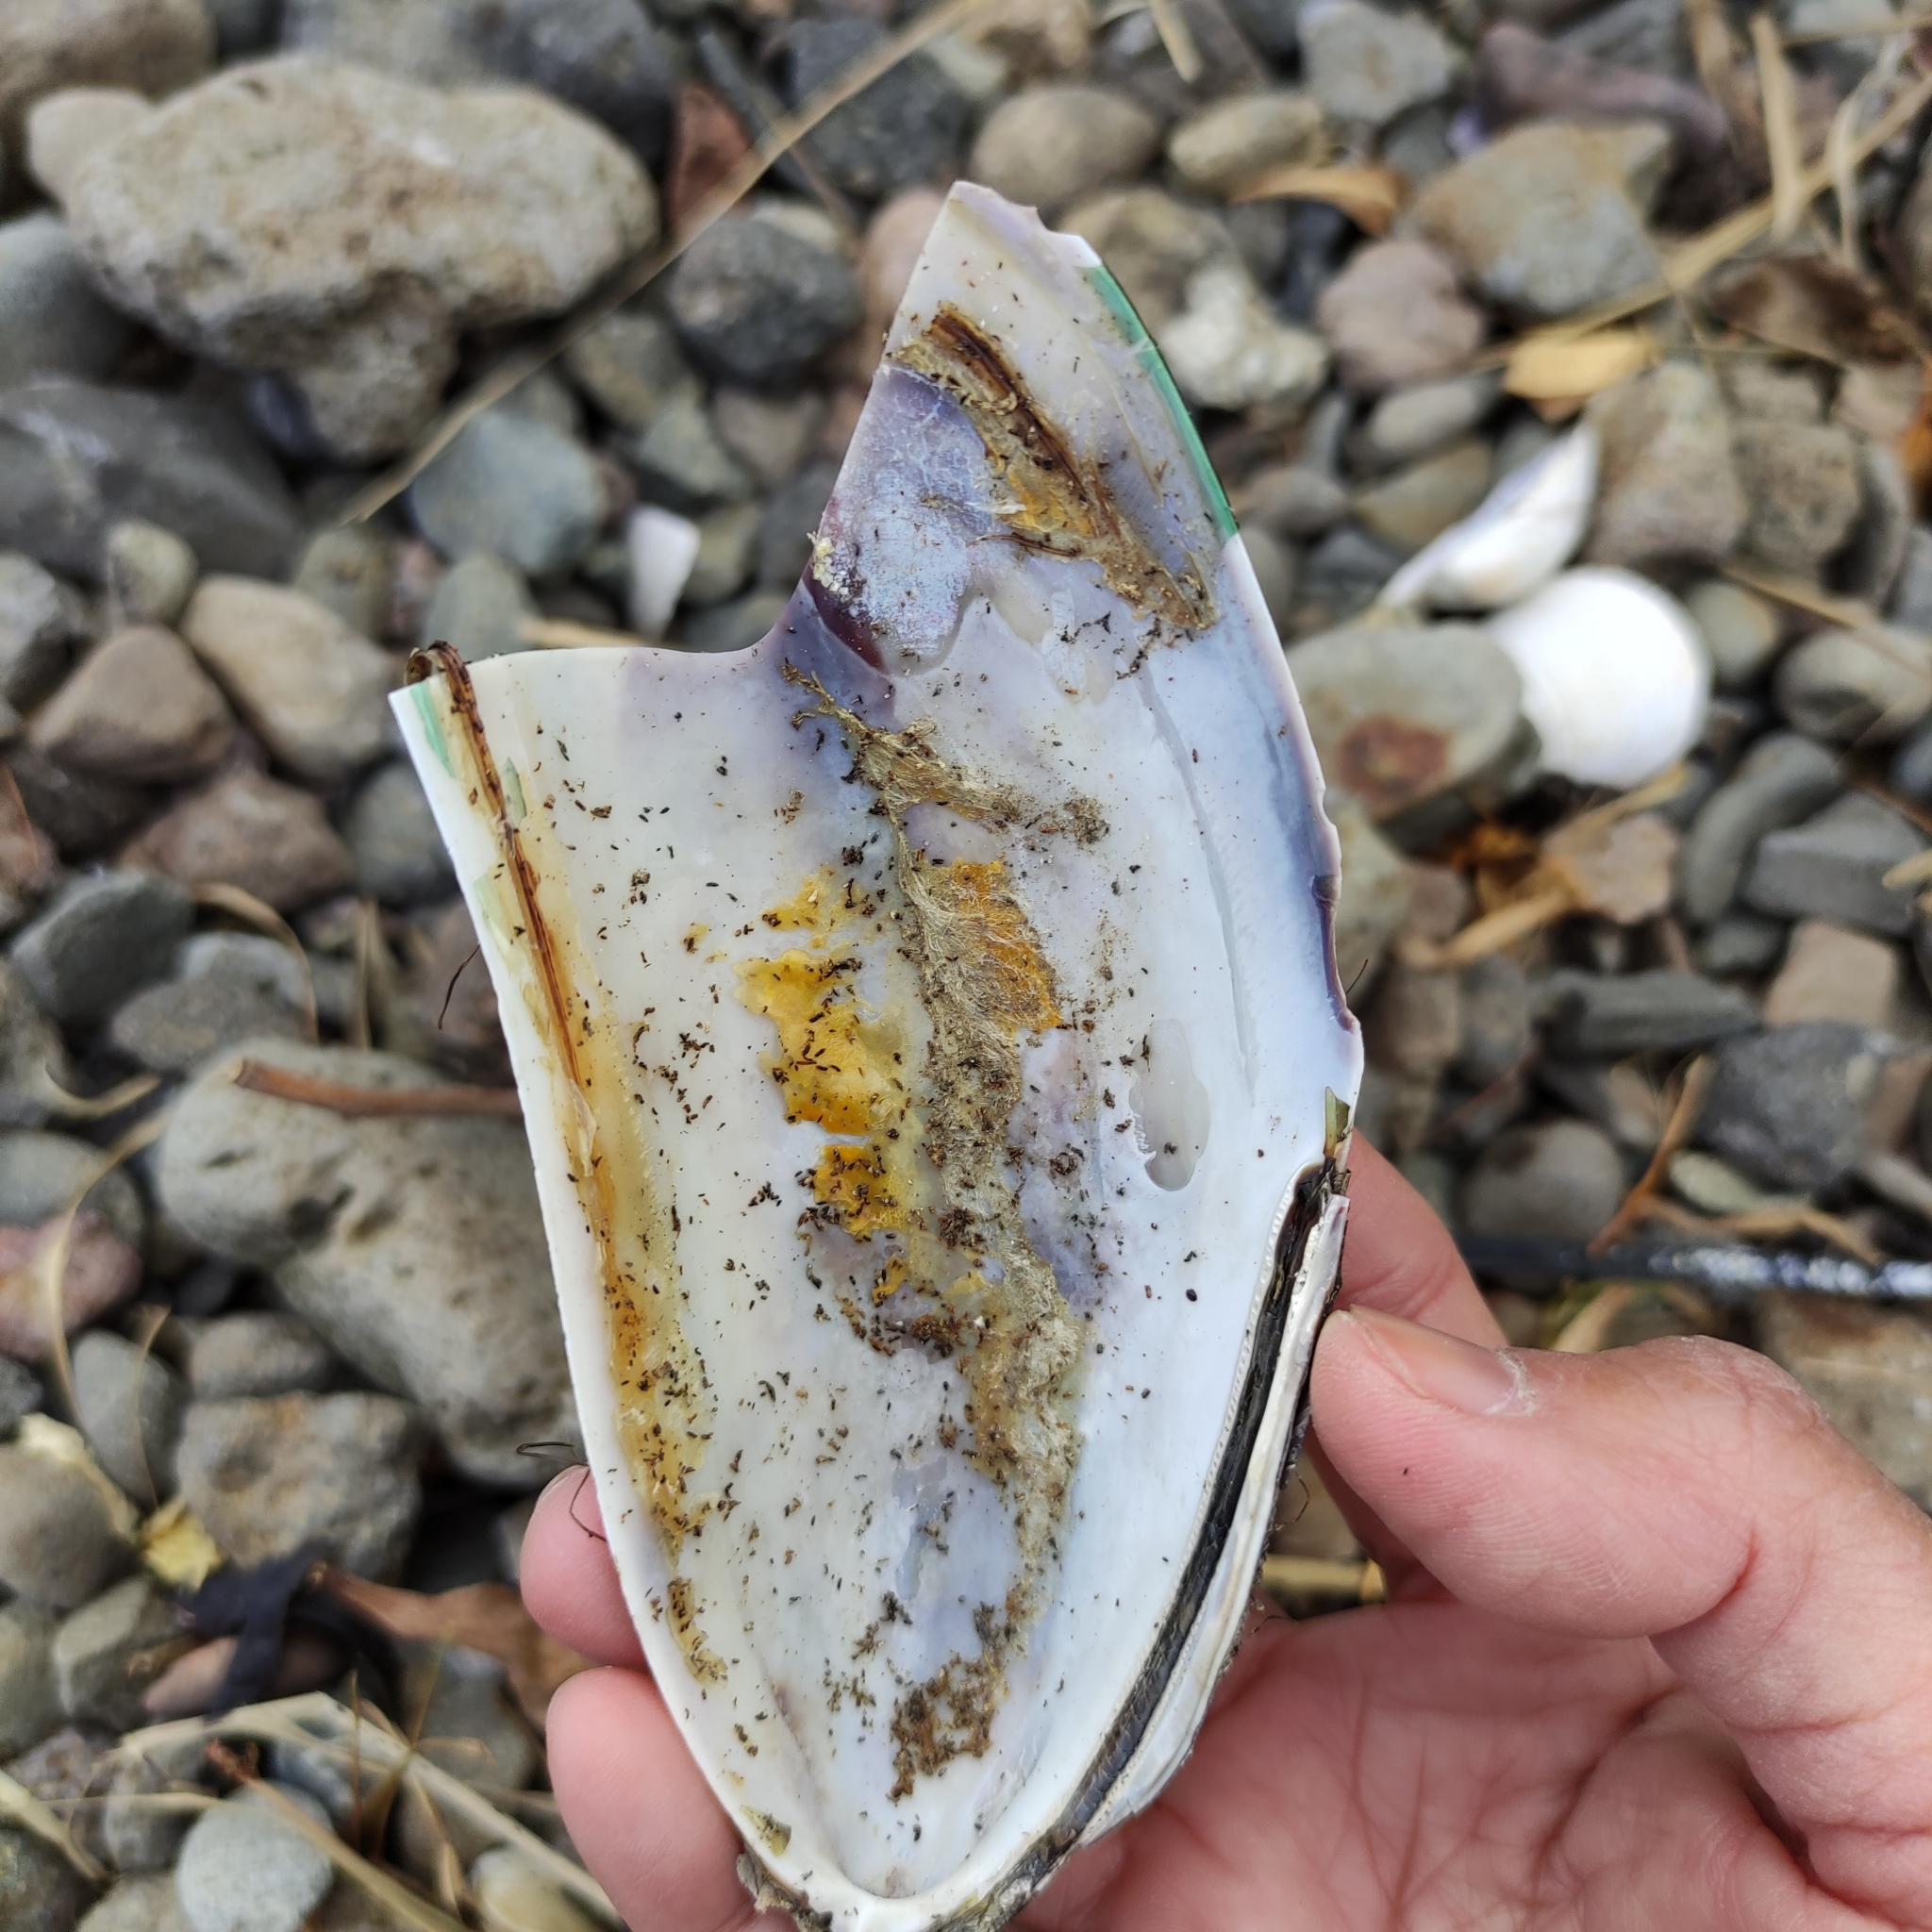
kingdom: Animalia
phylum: Mollusca
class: Bivalvia
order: Mytilida
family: Mytilidae
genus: Perna
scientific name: Perna canaliculus
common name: New zealand greenshelltm
